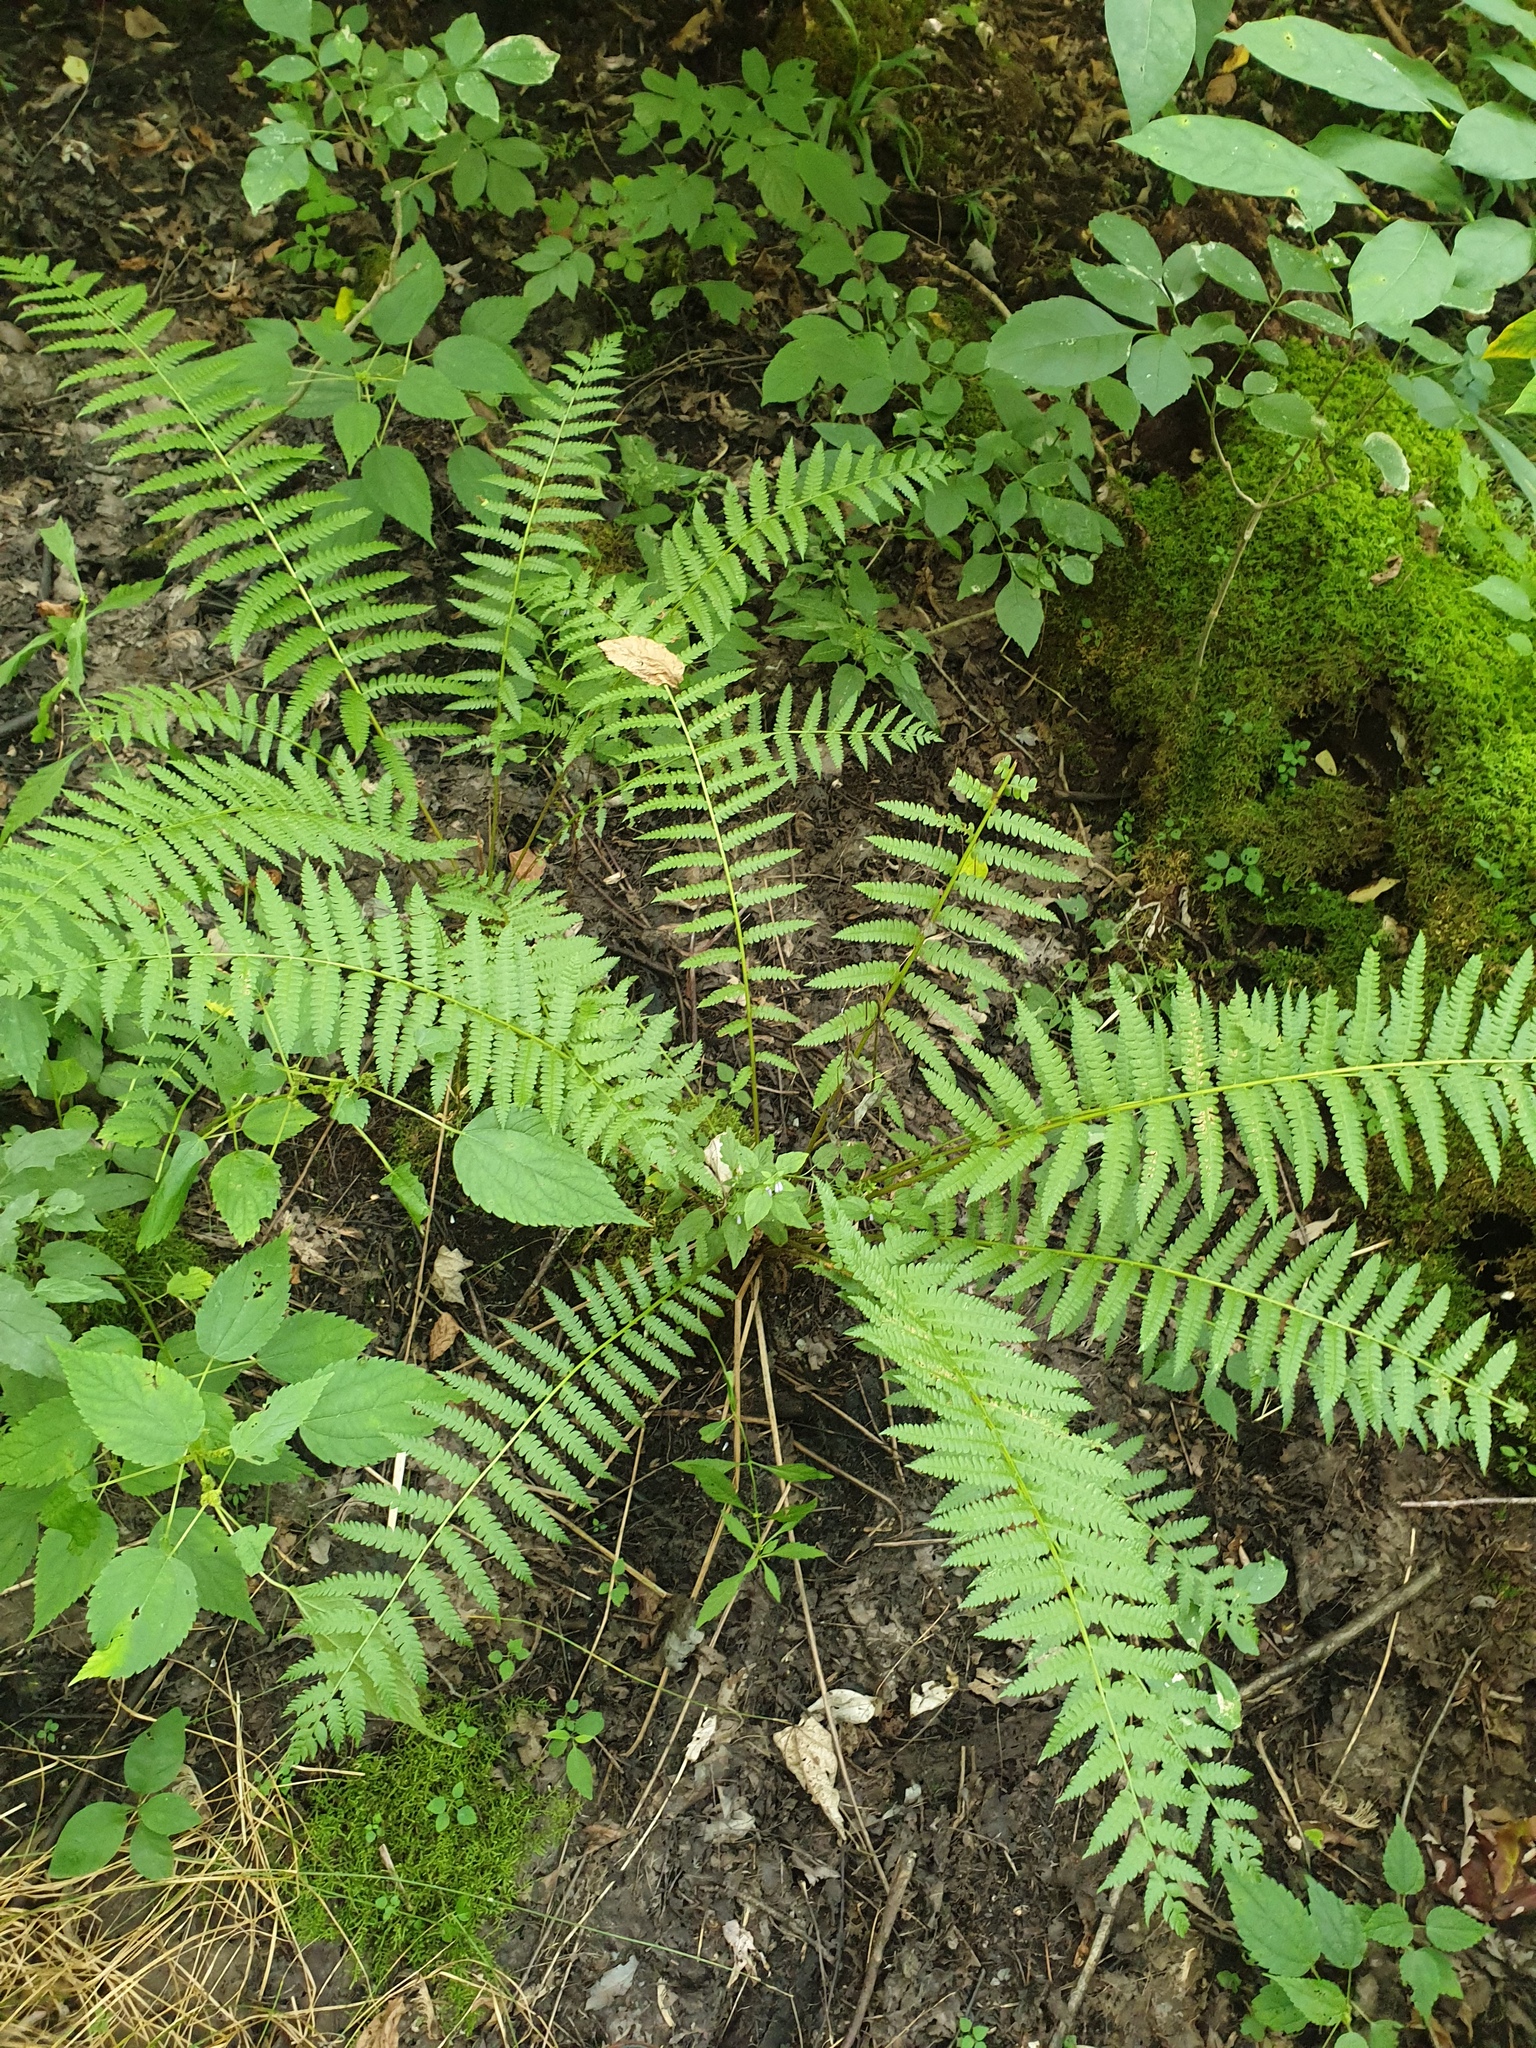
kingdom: Plantae
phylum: Tracheophyta
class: Polypodiopsida
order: Osmundales
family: Osmundaceae
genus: Osmundastrum
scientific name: Osmundastrum cinnamomeum
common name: Cinnamon fern
